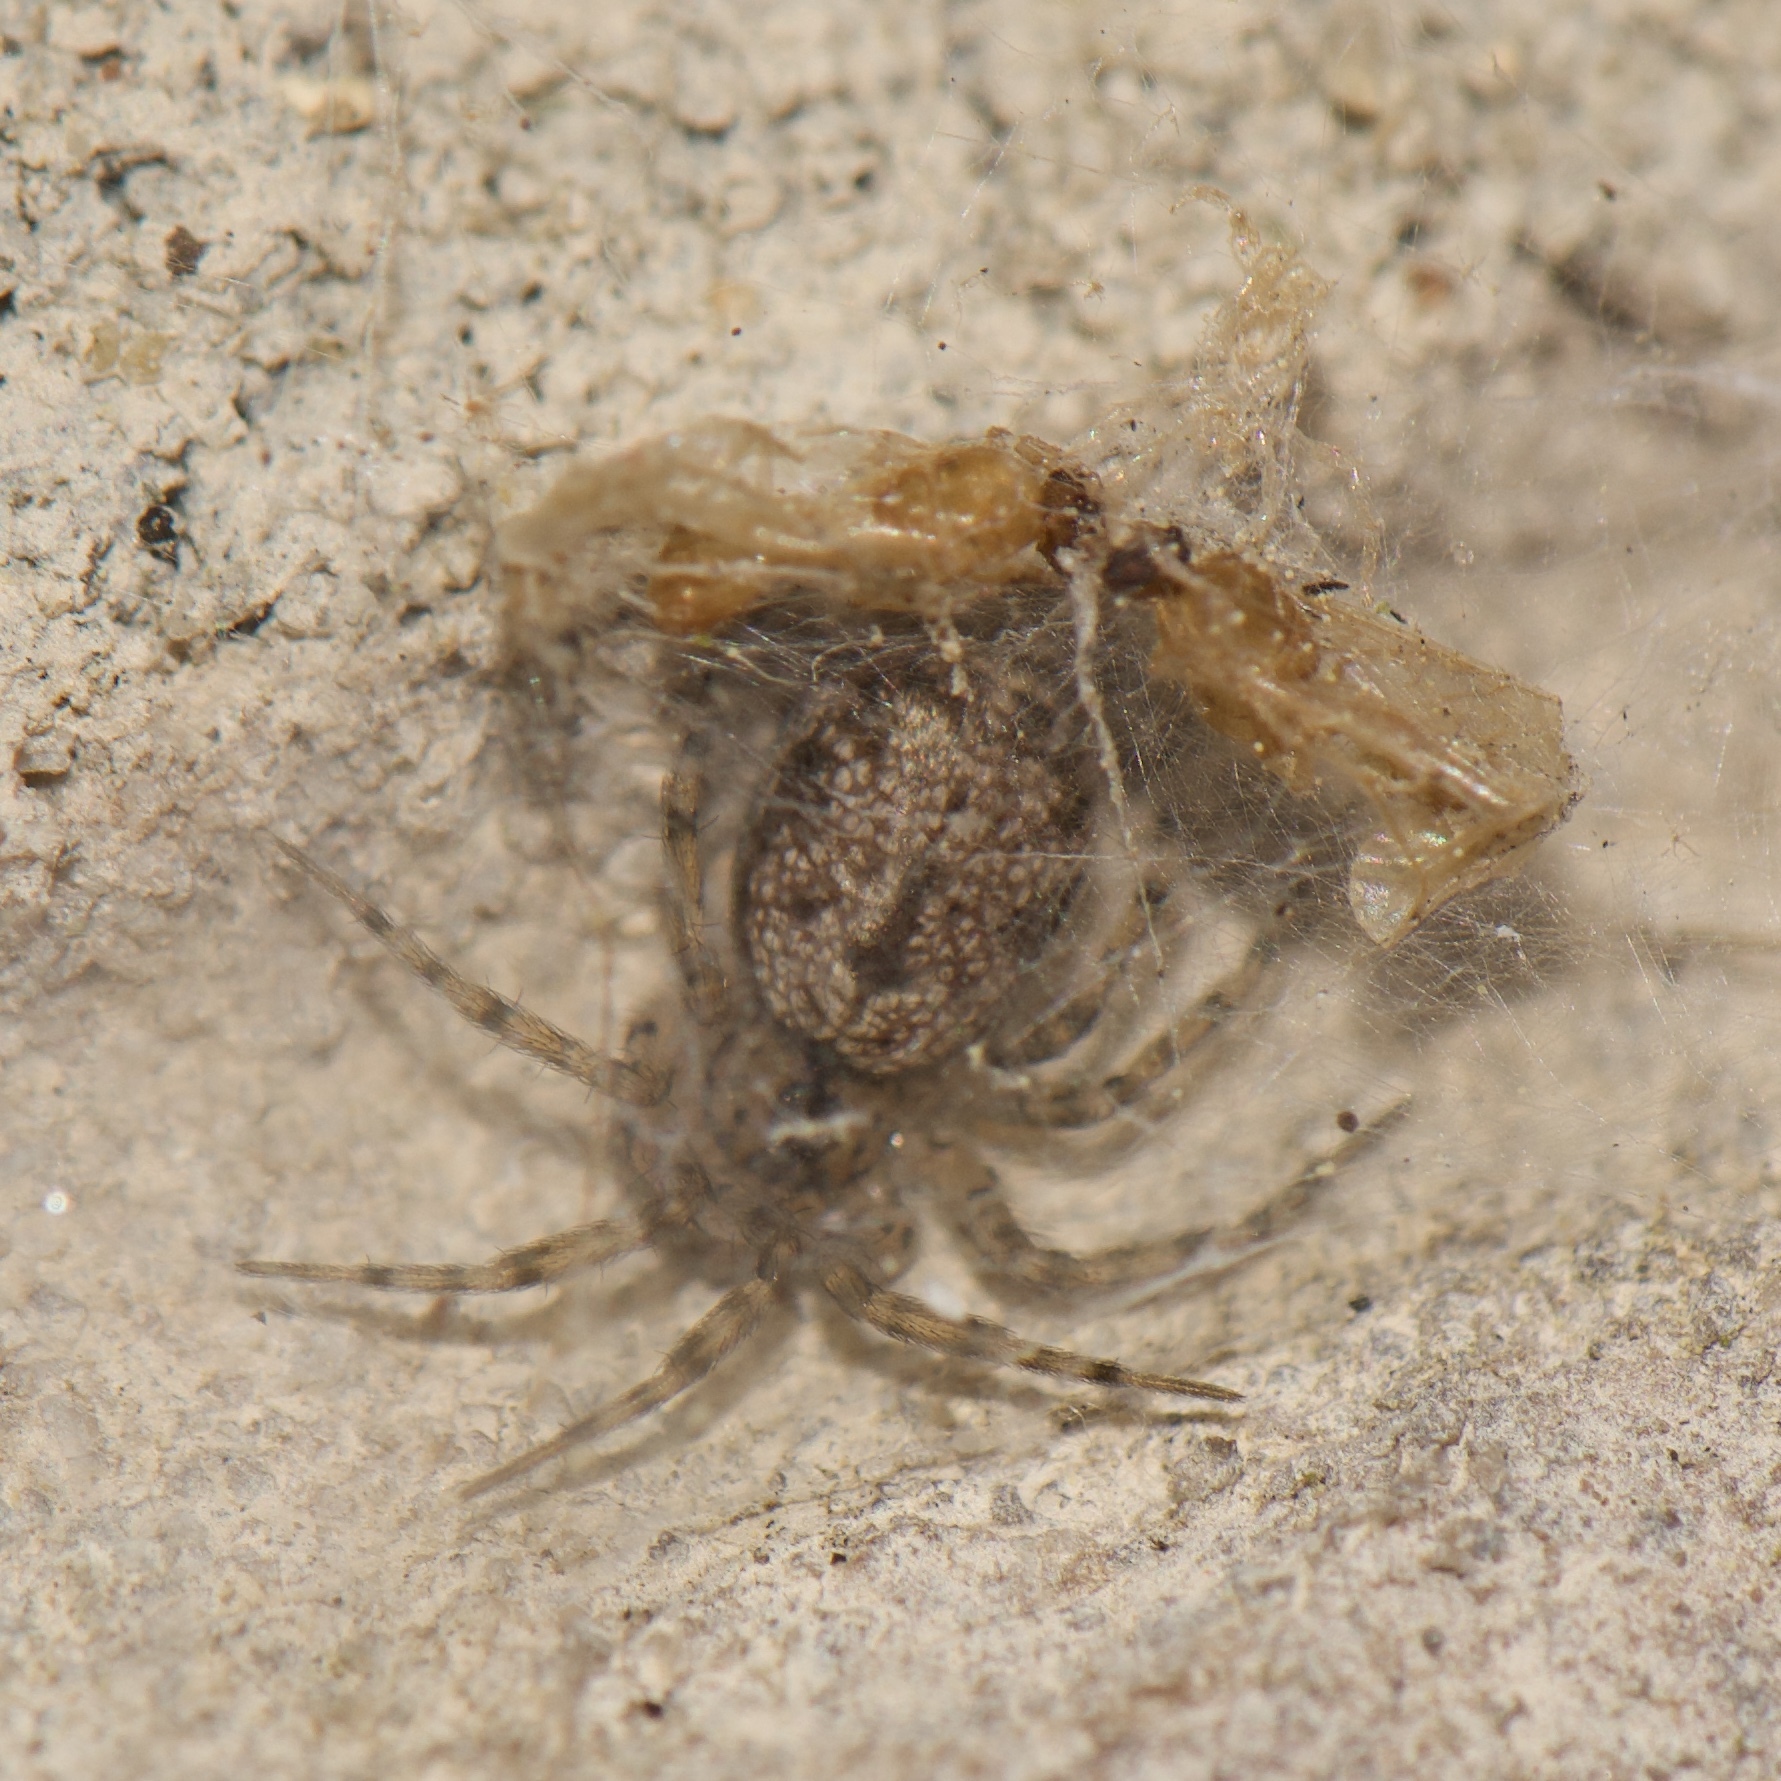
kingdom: Animalia
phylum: Arthropoda
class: Arachnida
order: Araneae
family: Oecobiidae
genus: Oecobius
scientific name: Oecobius navus
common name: Flatmesh weaver
